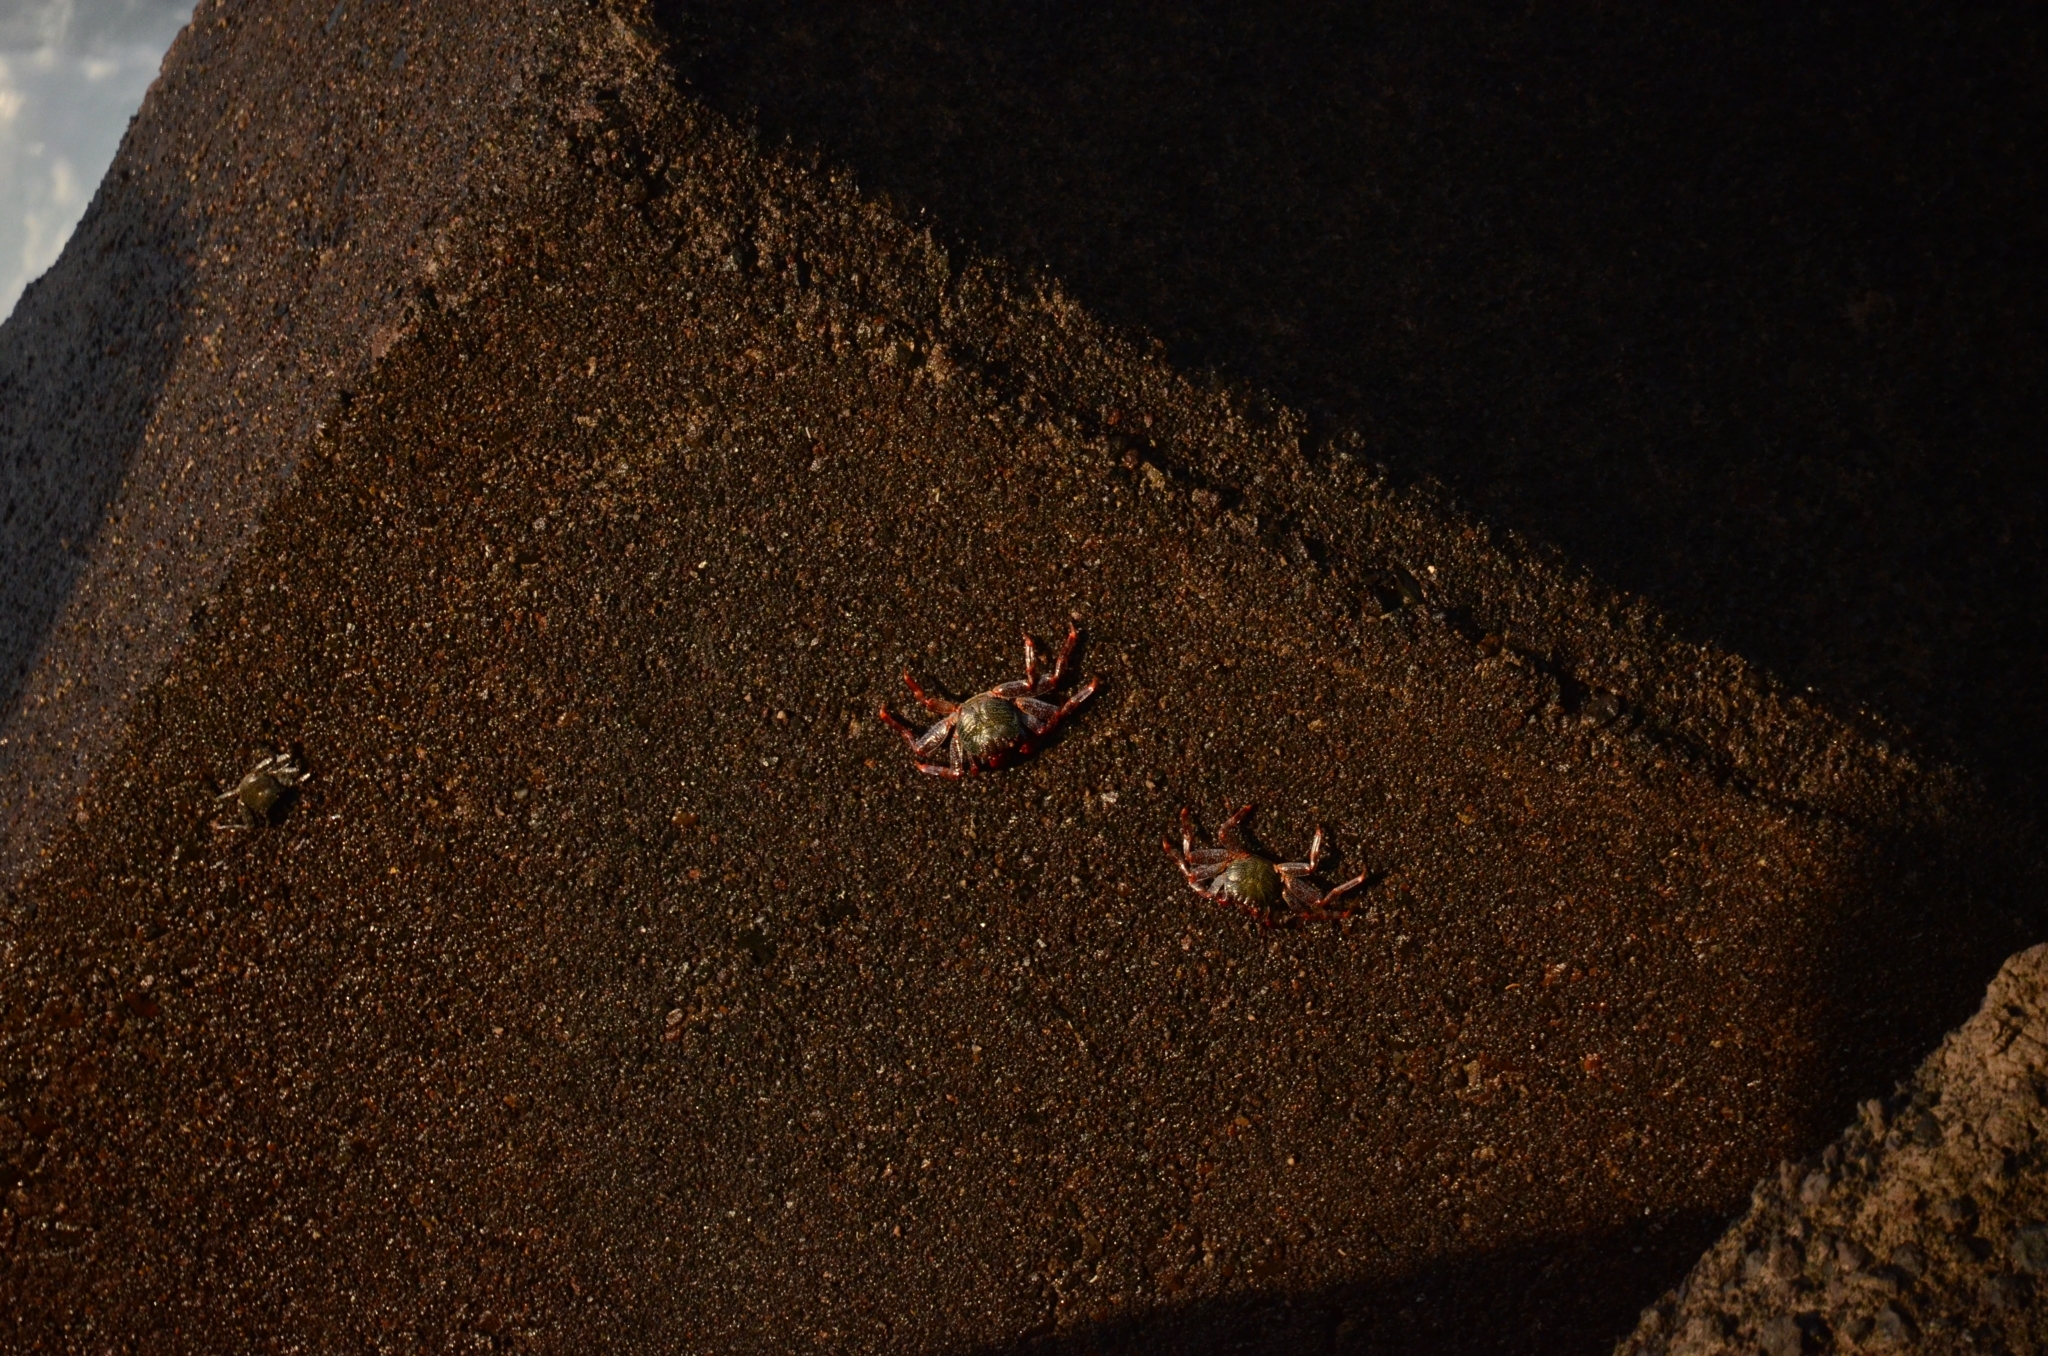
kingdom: Animalia
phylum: Arthropoda
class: Malacostraca
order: Decapoda
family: Grapsidae
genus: Grapsus
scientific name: Grapsus adscensionis
